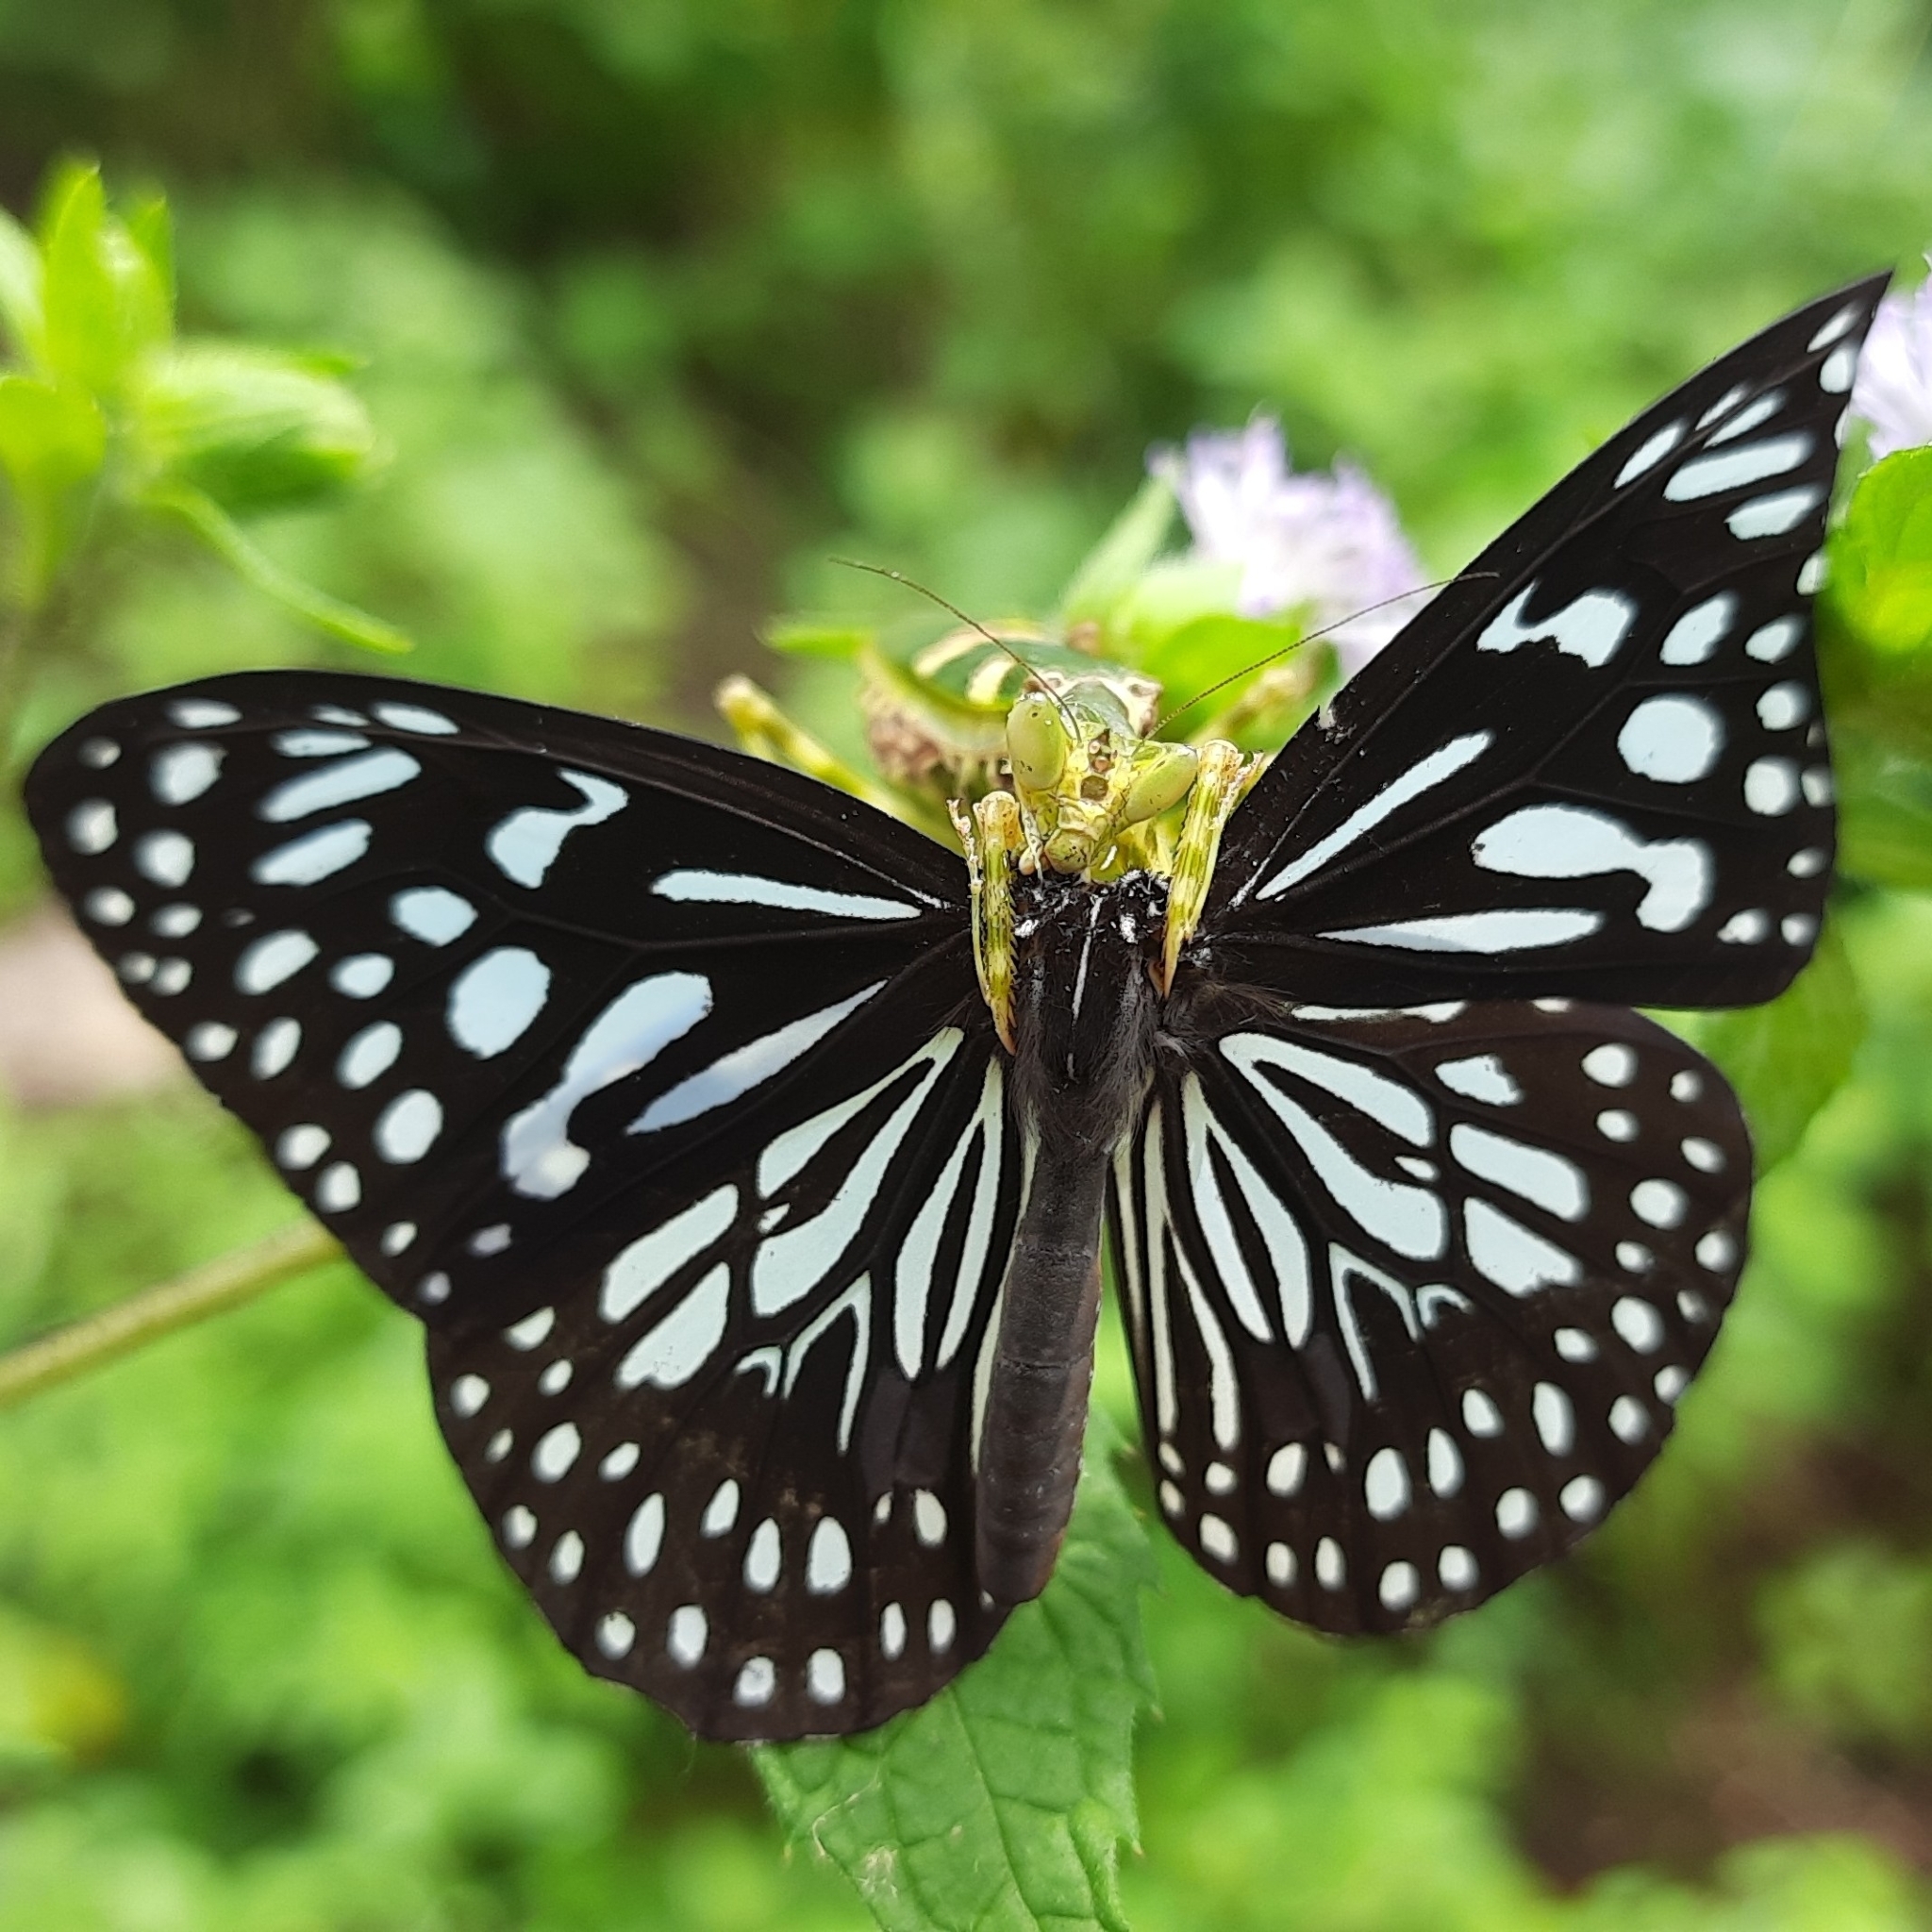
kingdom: Animalia
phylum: Arthropoda
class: Insecta
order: Lepidoptera
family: Nymphalidae
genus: Tirumala
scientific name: Tirumala septentrionis
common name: Dark blue tiger butterfly
